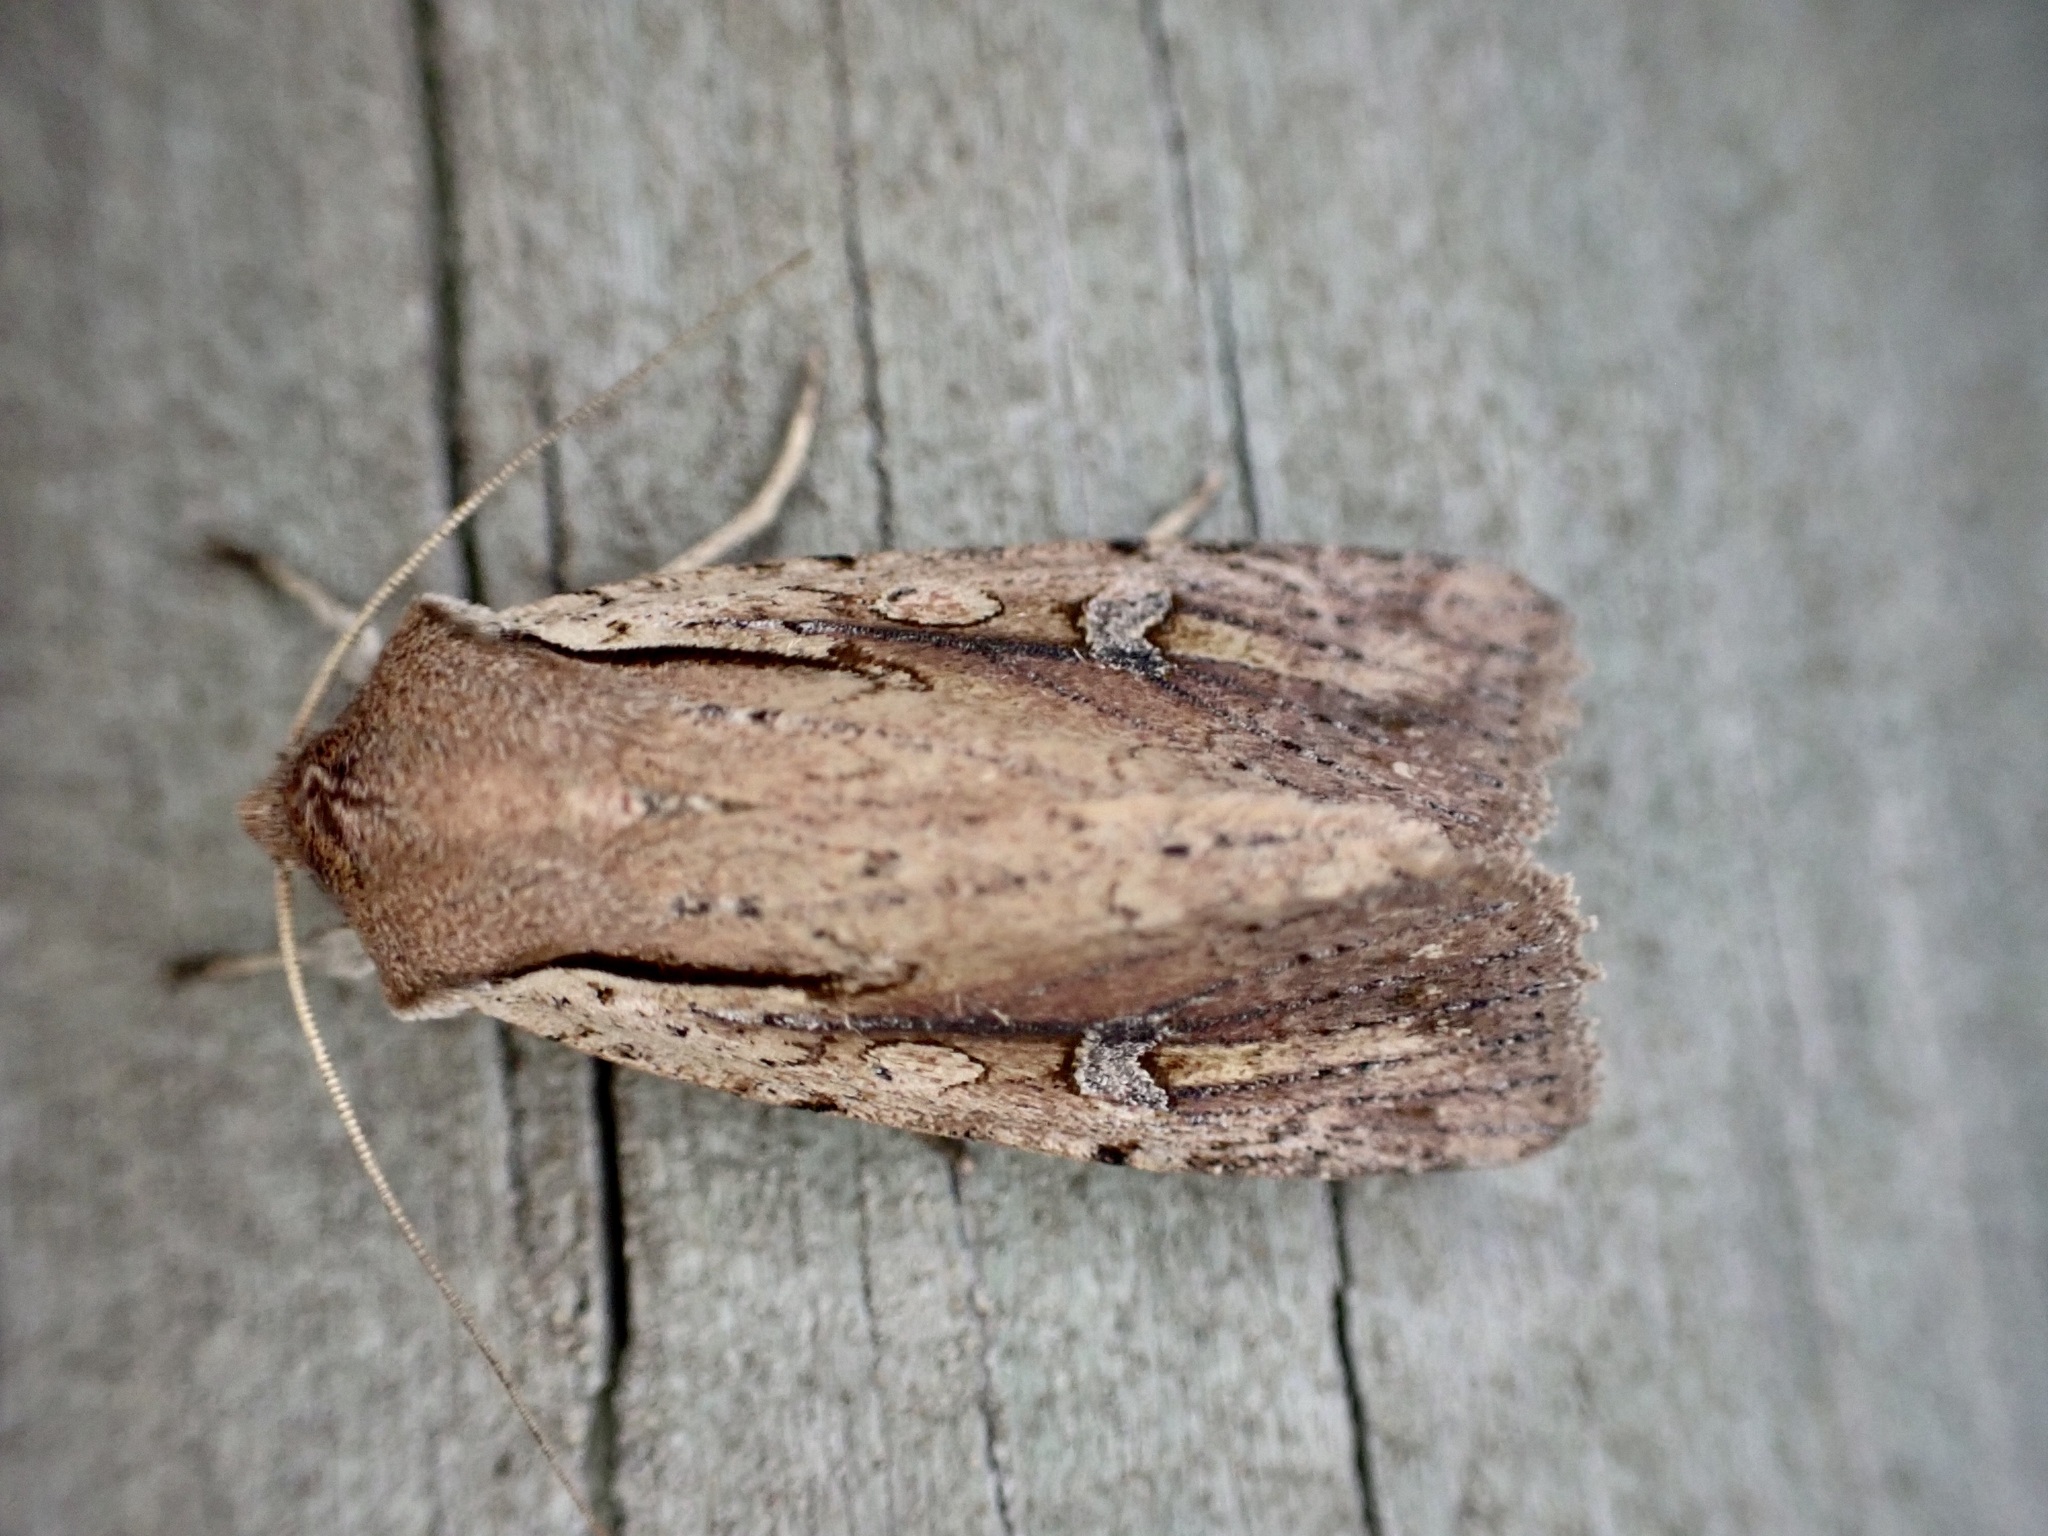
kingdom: Animalia
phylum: Arthropoda
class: Insecta
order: Lepidoptera
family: Noctuidae
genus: Ichneutica
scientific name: Ichneutica atristriga
